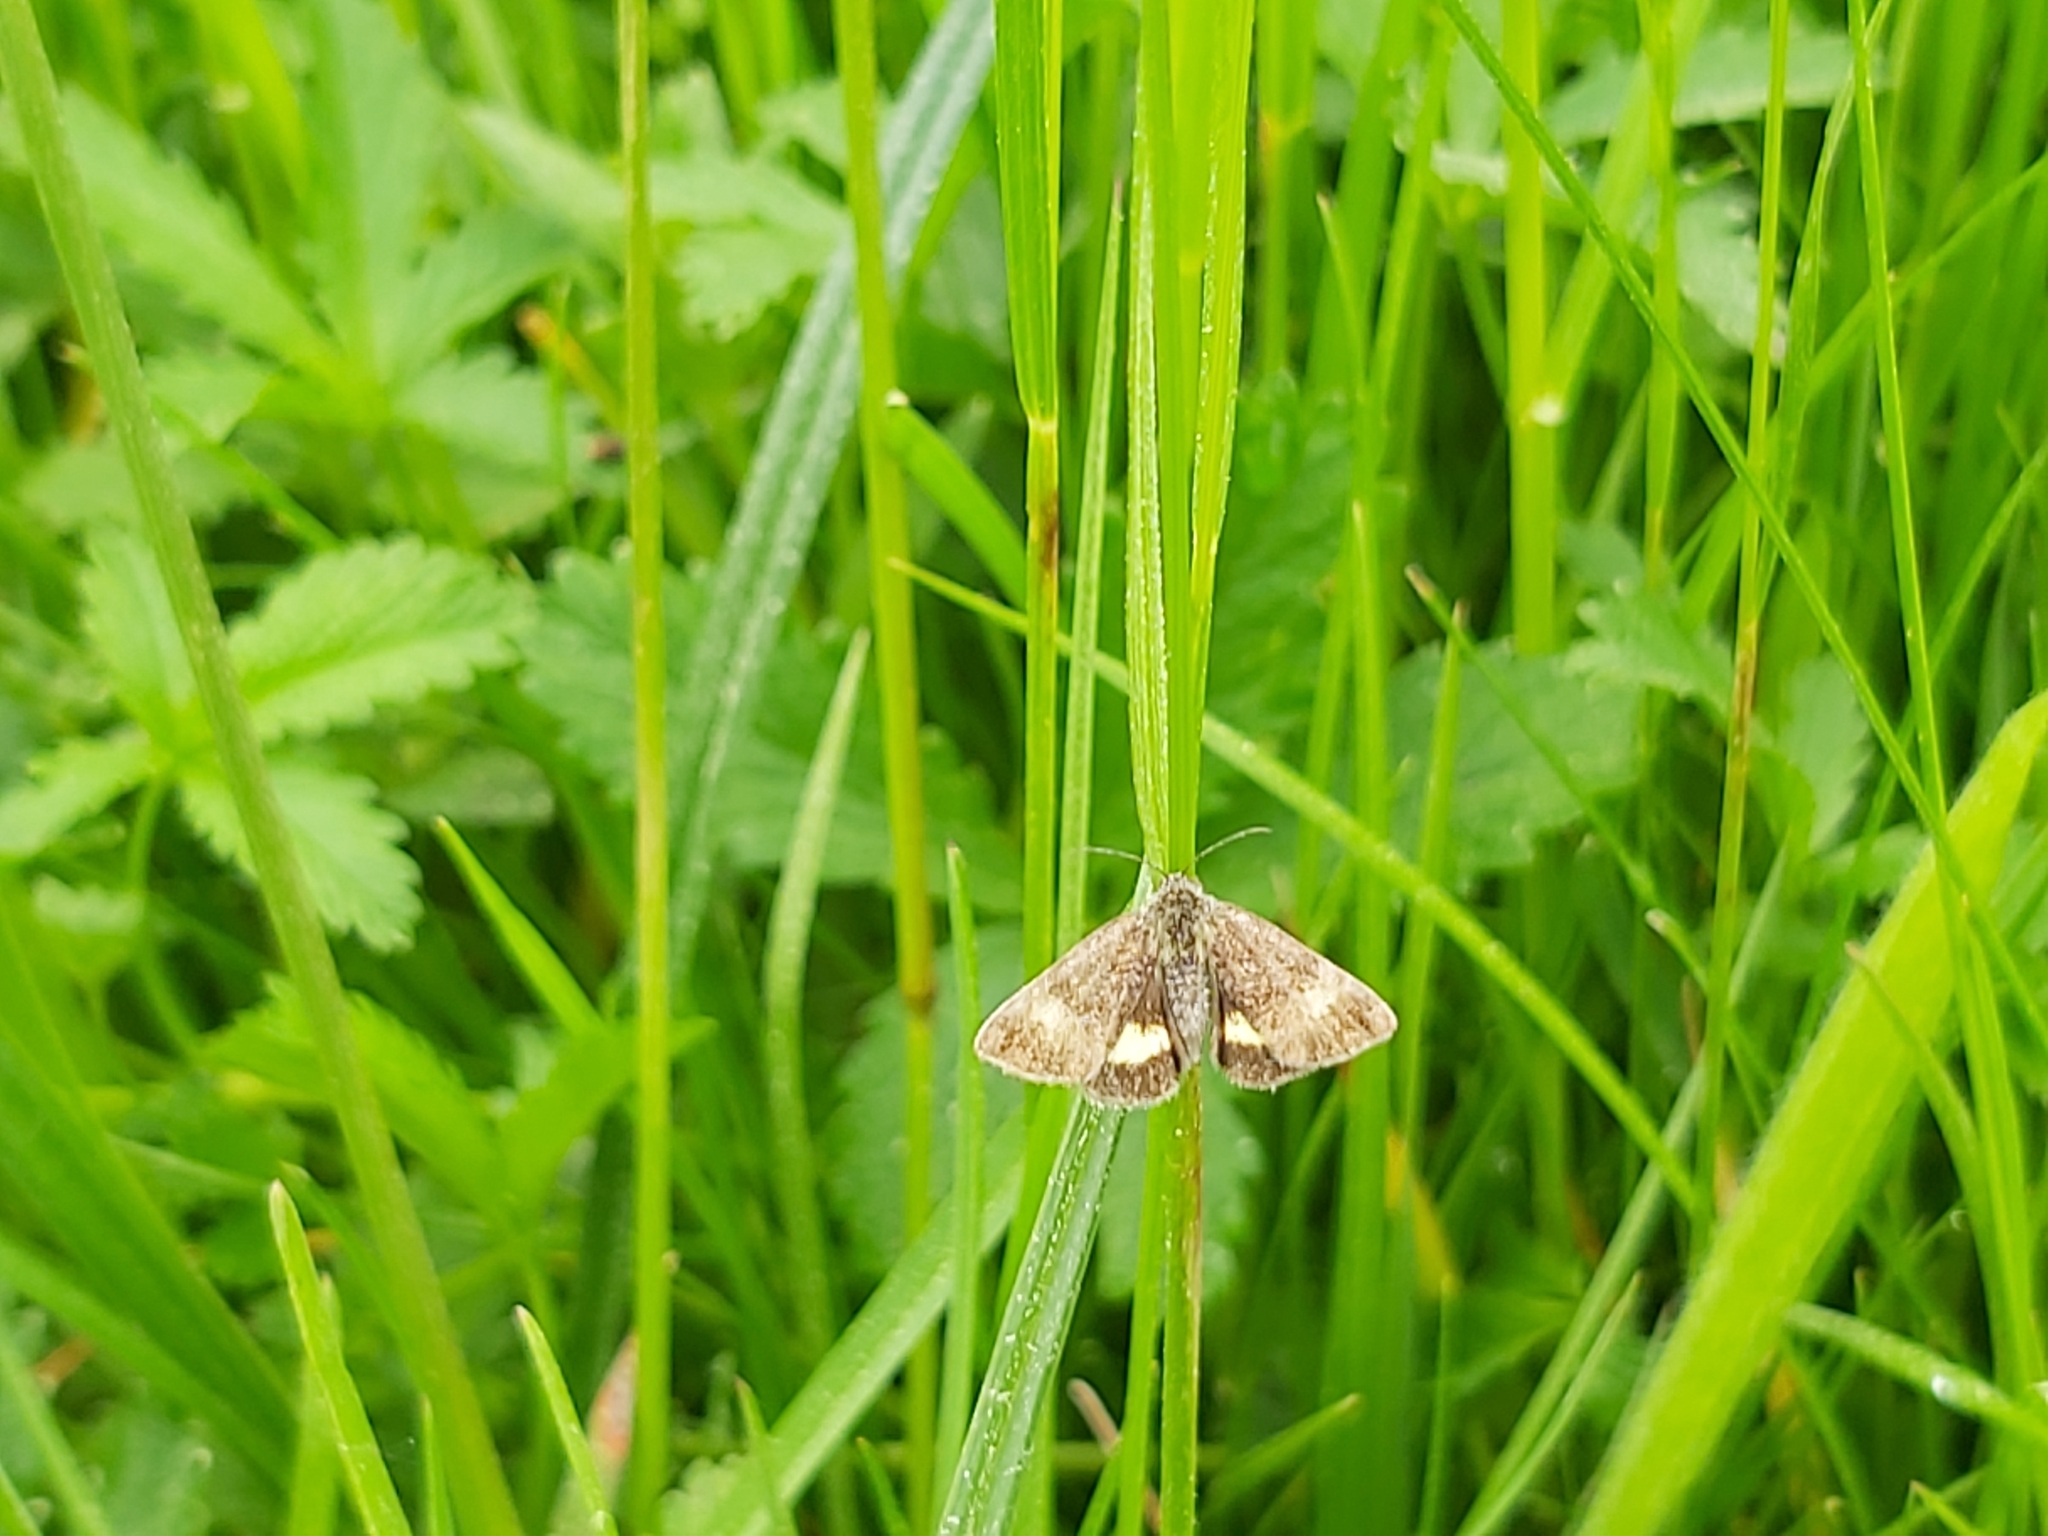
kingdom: Animalia
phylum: Arthropoda
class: Insecta
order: Lepidoptera
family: Noctuidae
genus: Panemeria
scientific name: Panemeria tenebrata
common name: Small yellow underwing
